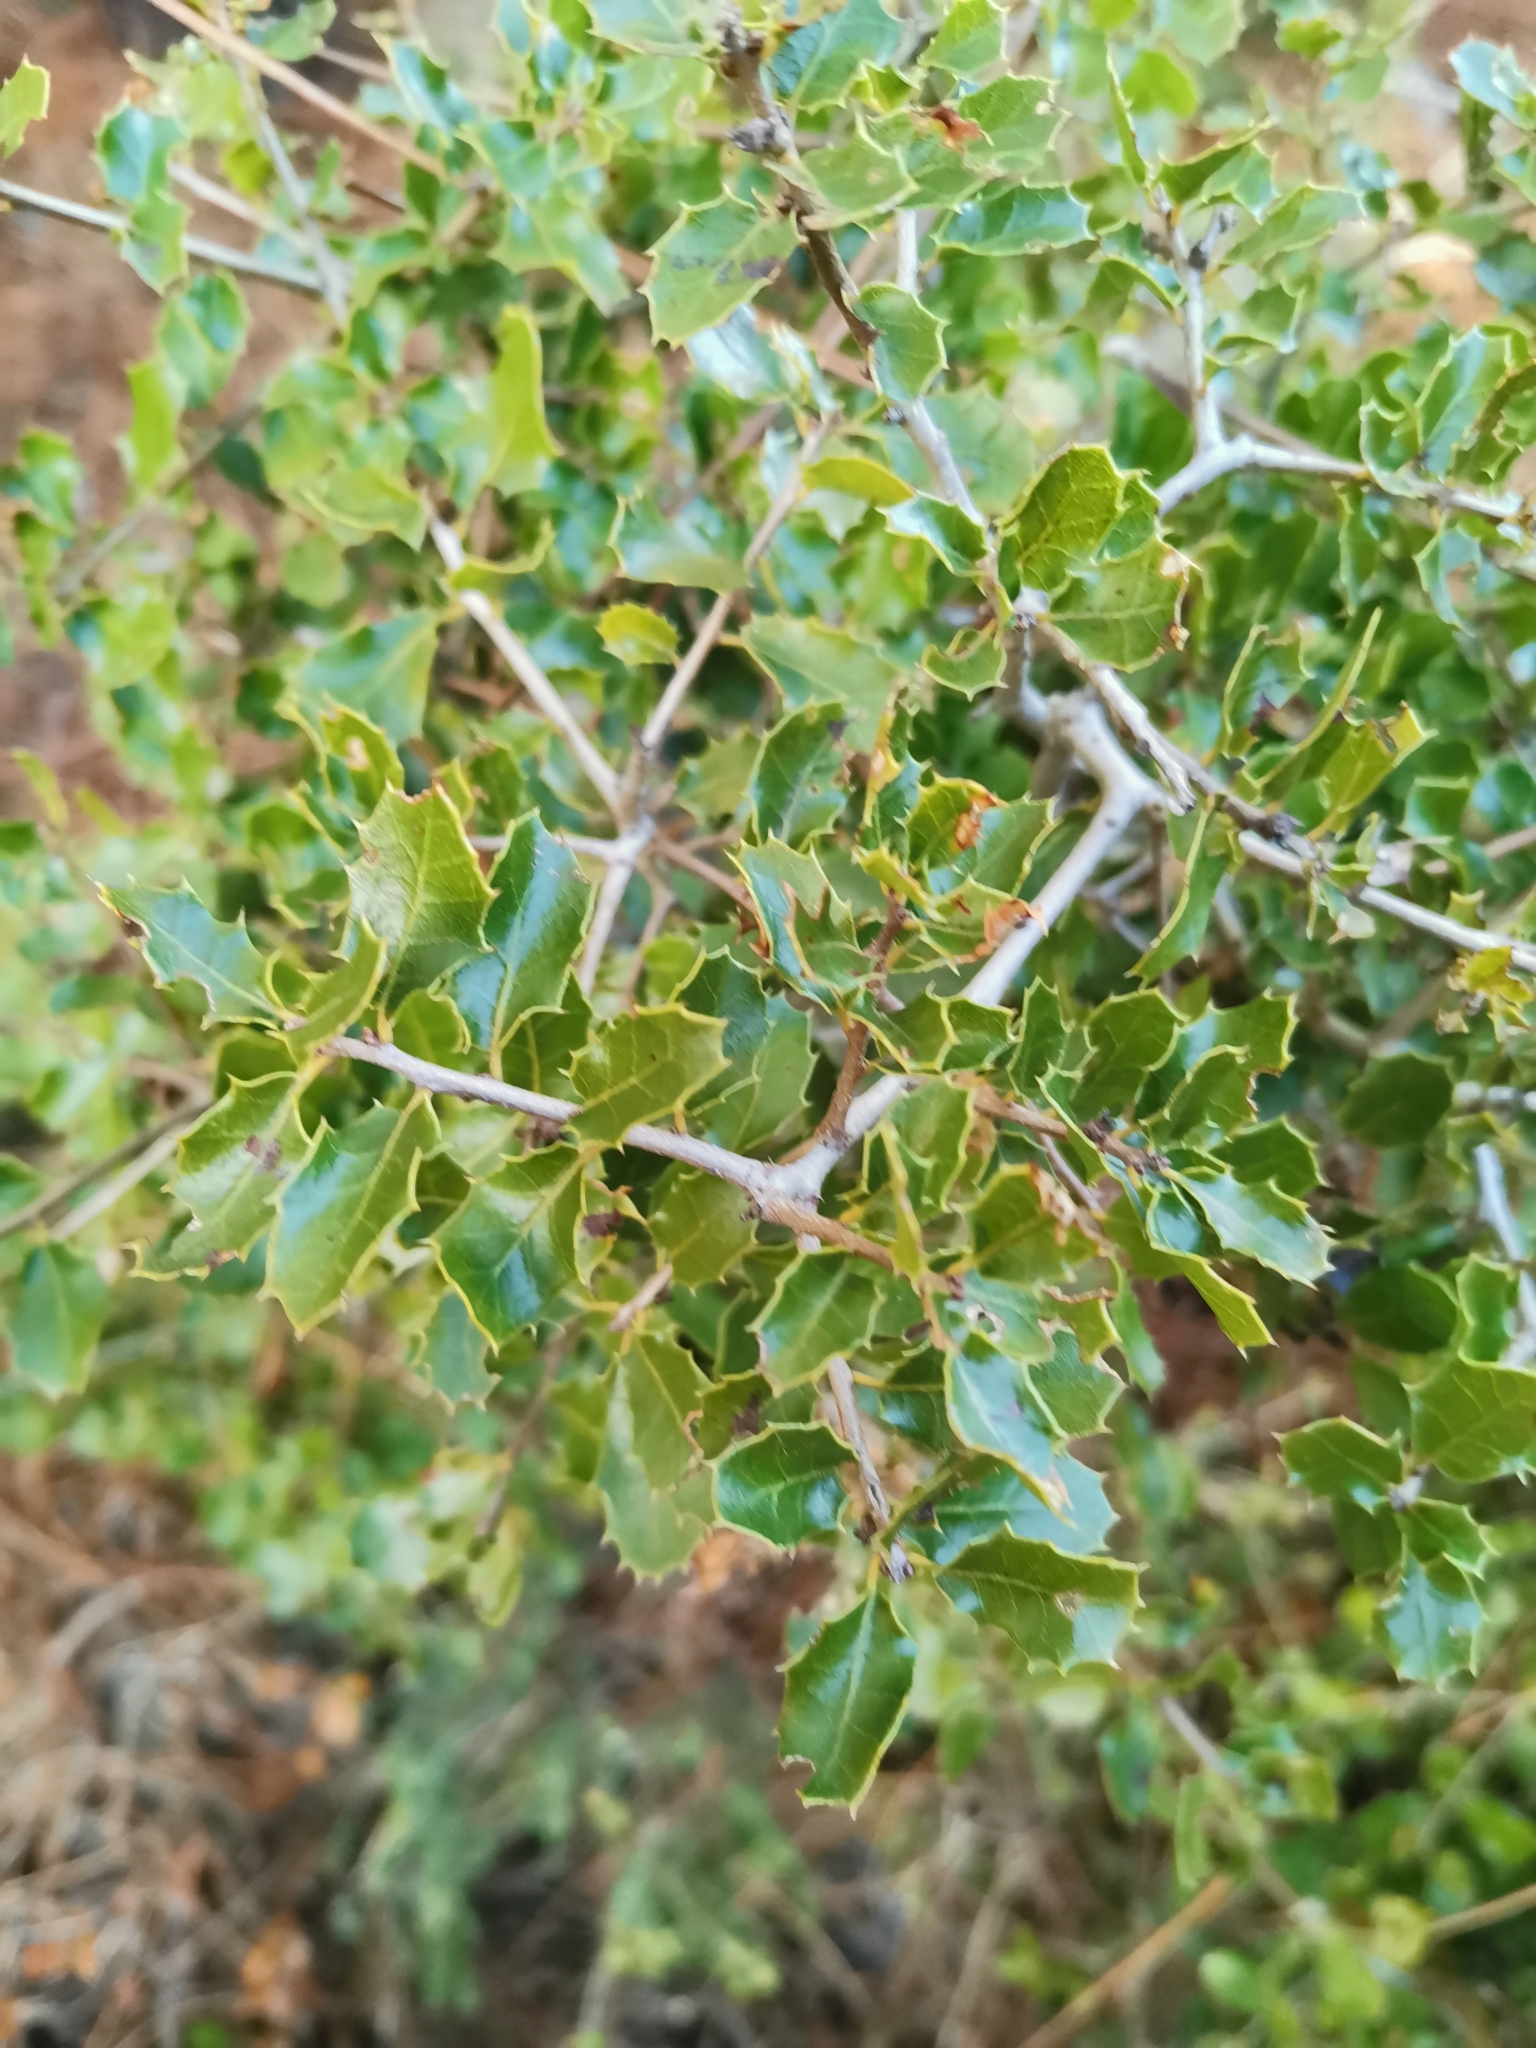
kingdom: Plantae
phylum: Tracheophyta
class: Magnoliopsida
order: Fagales
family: Fagaceae
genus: Quercus
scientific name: Quercus coccifera
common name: Kermes oak
